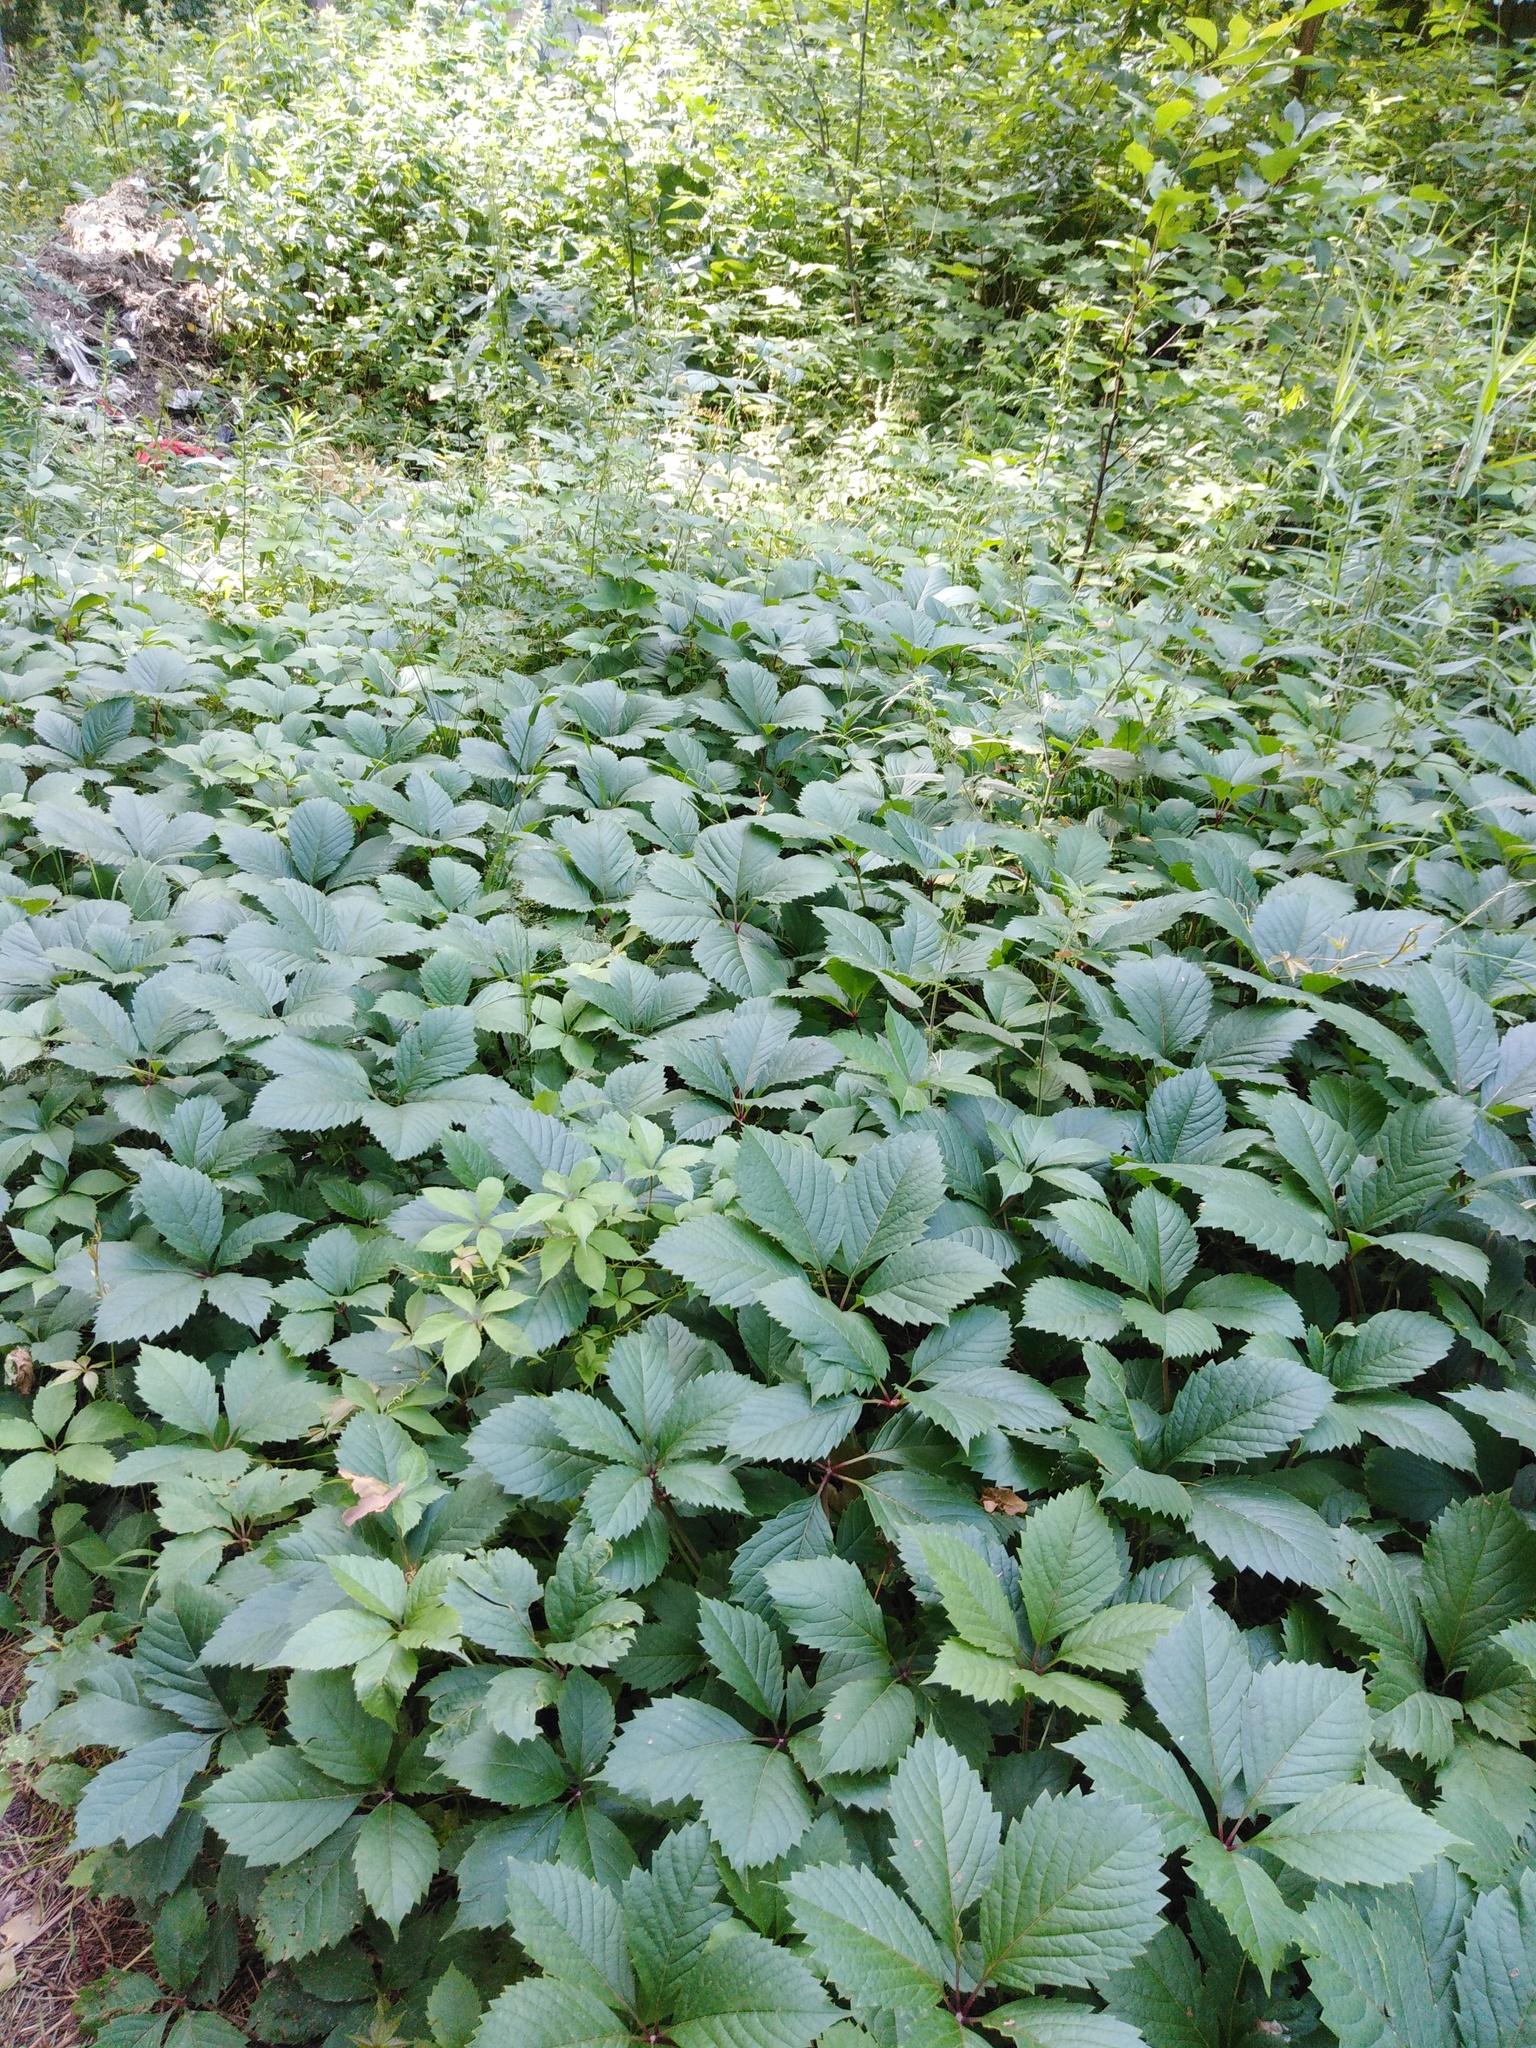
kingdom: Plantae
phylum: Tracheophyta
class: Magnoliopsida
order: Vitales
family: Vitaceae
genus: Parthenocissus
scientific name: Parthenocissus inserta
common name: False virginia-creeper
